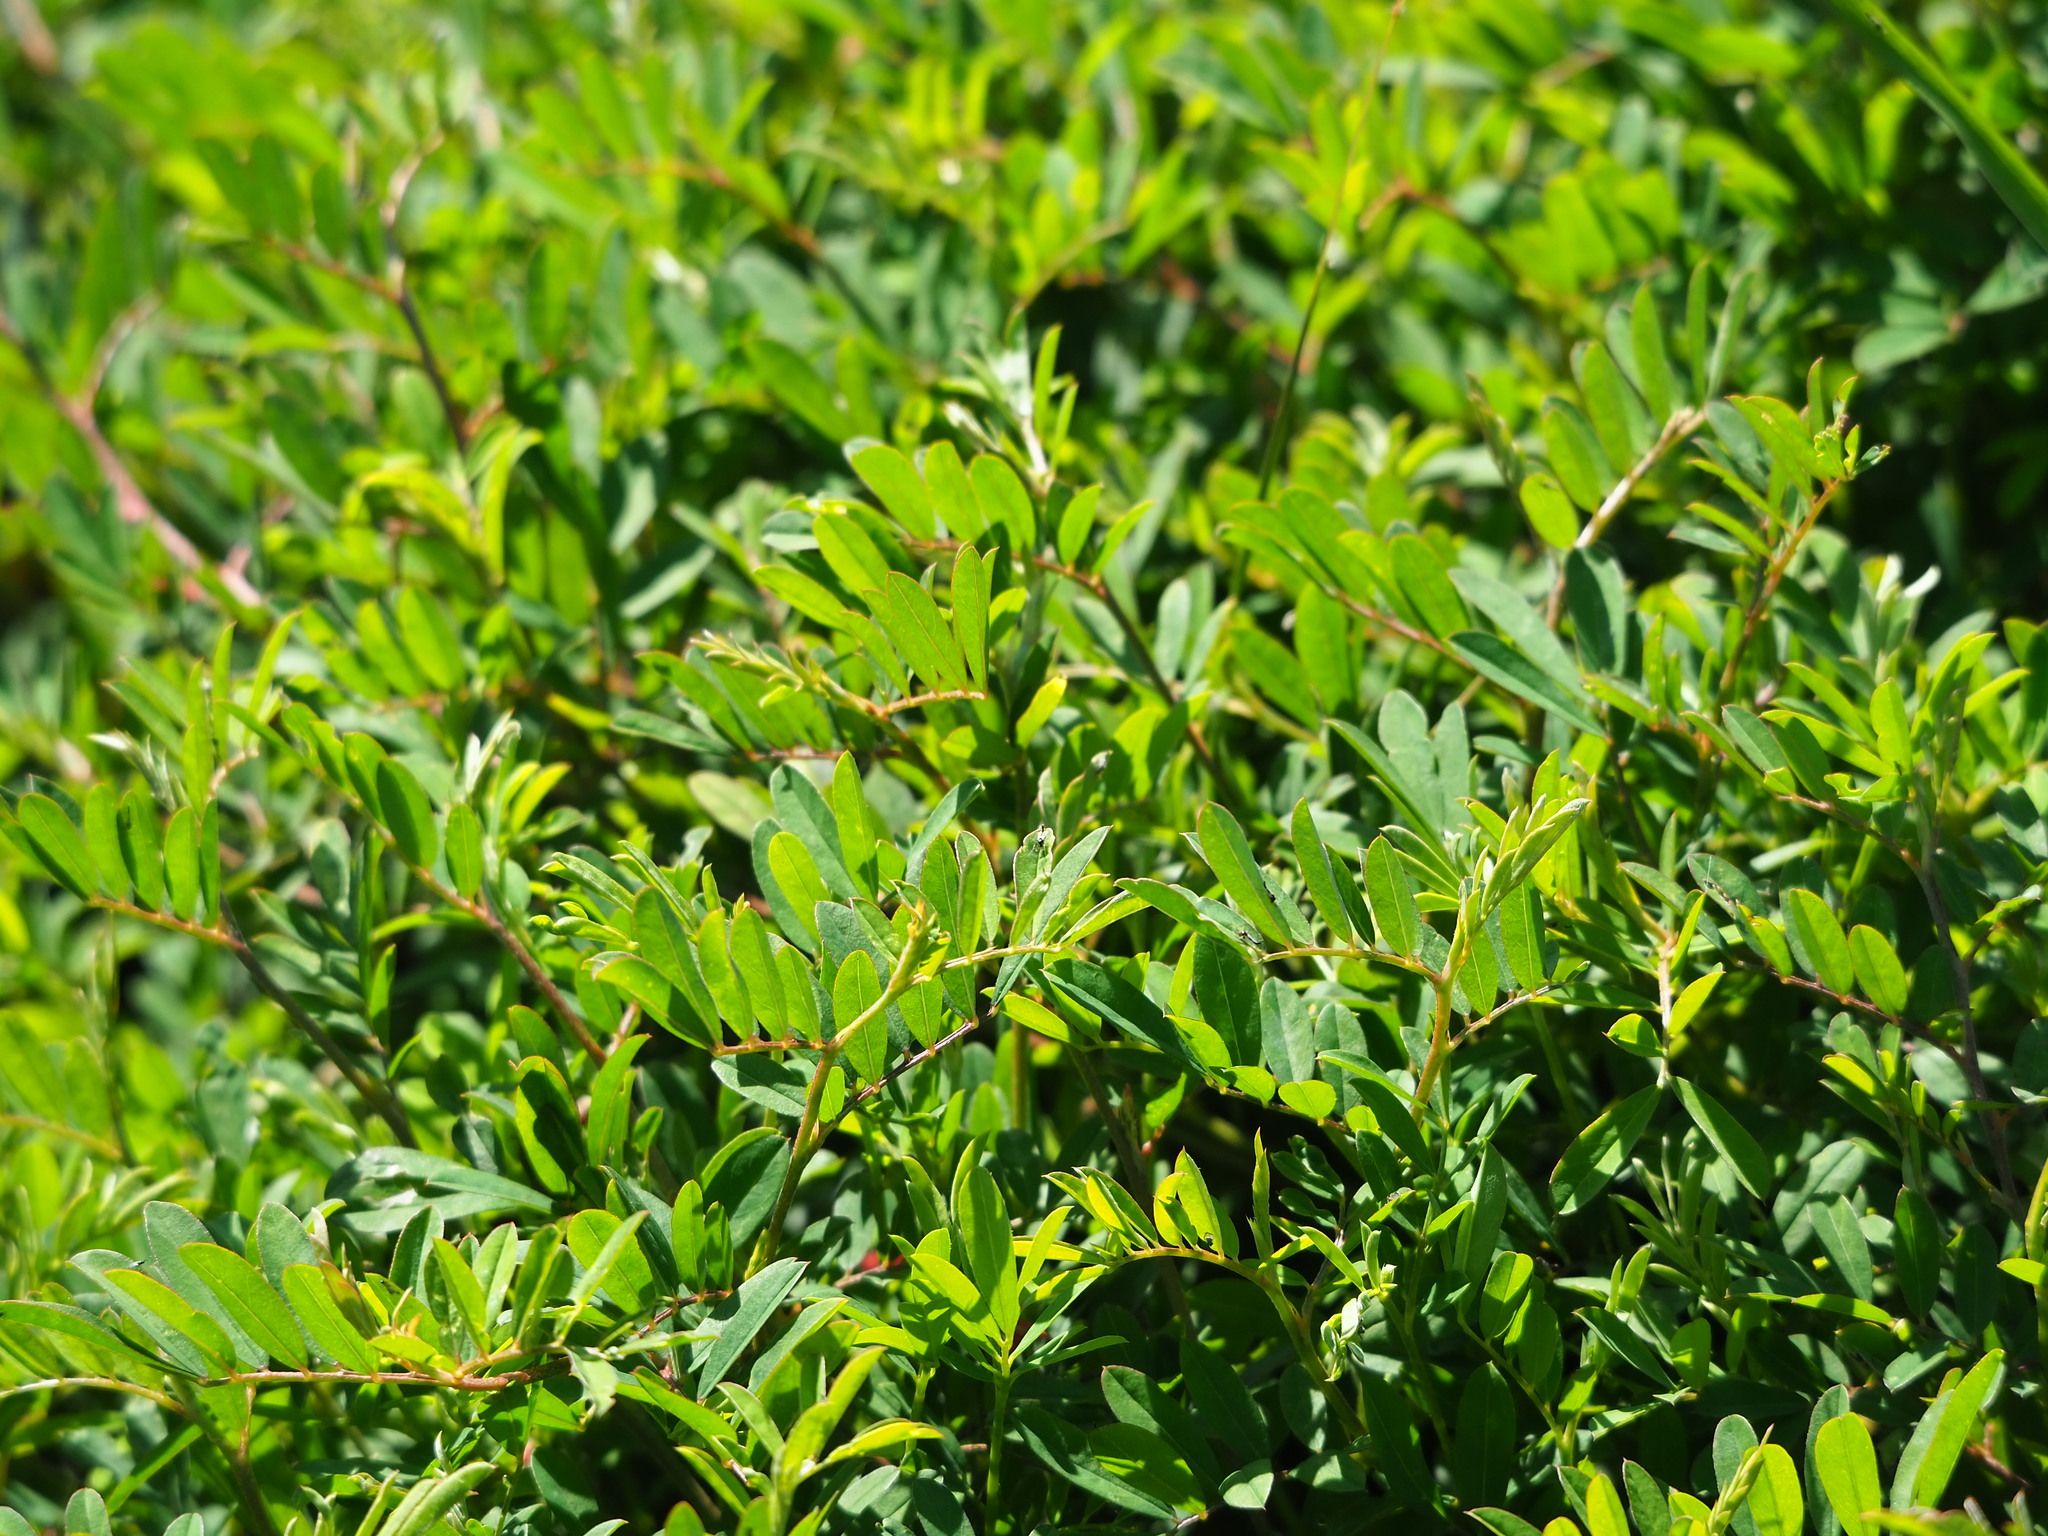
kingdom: Plantae
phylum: Tracheophyta
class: Magnoliopsida
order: Fabales
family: Fabaceae
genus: Indigofera
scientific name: Indigofera hendecaphylla
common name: Trailing indigo
